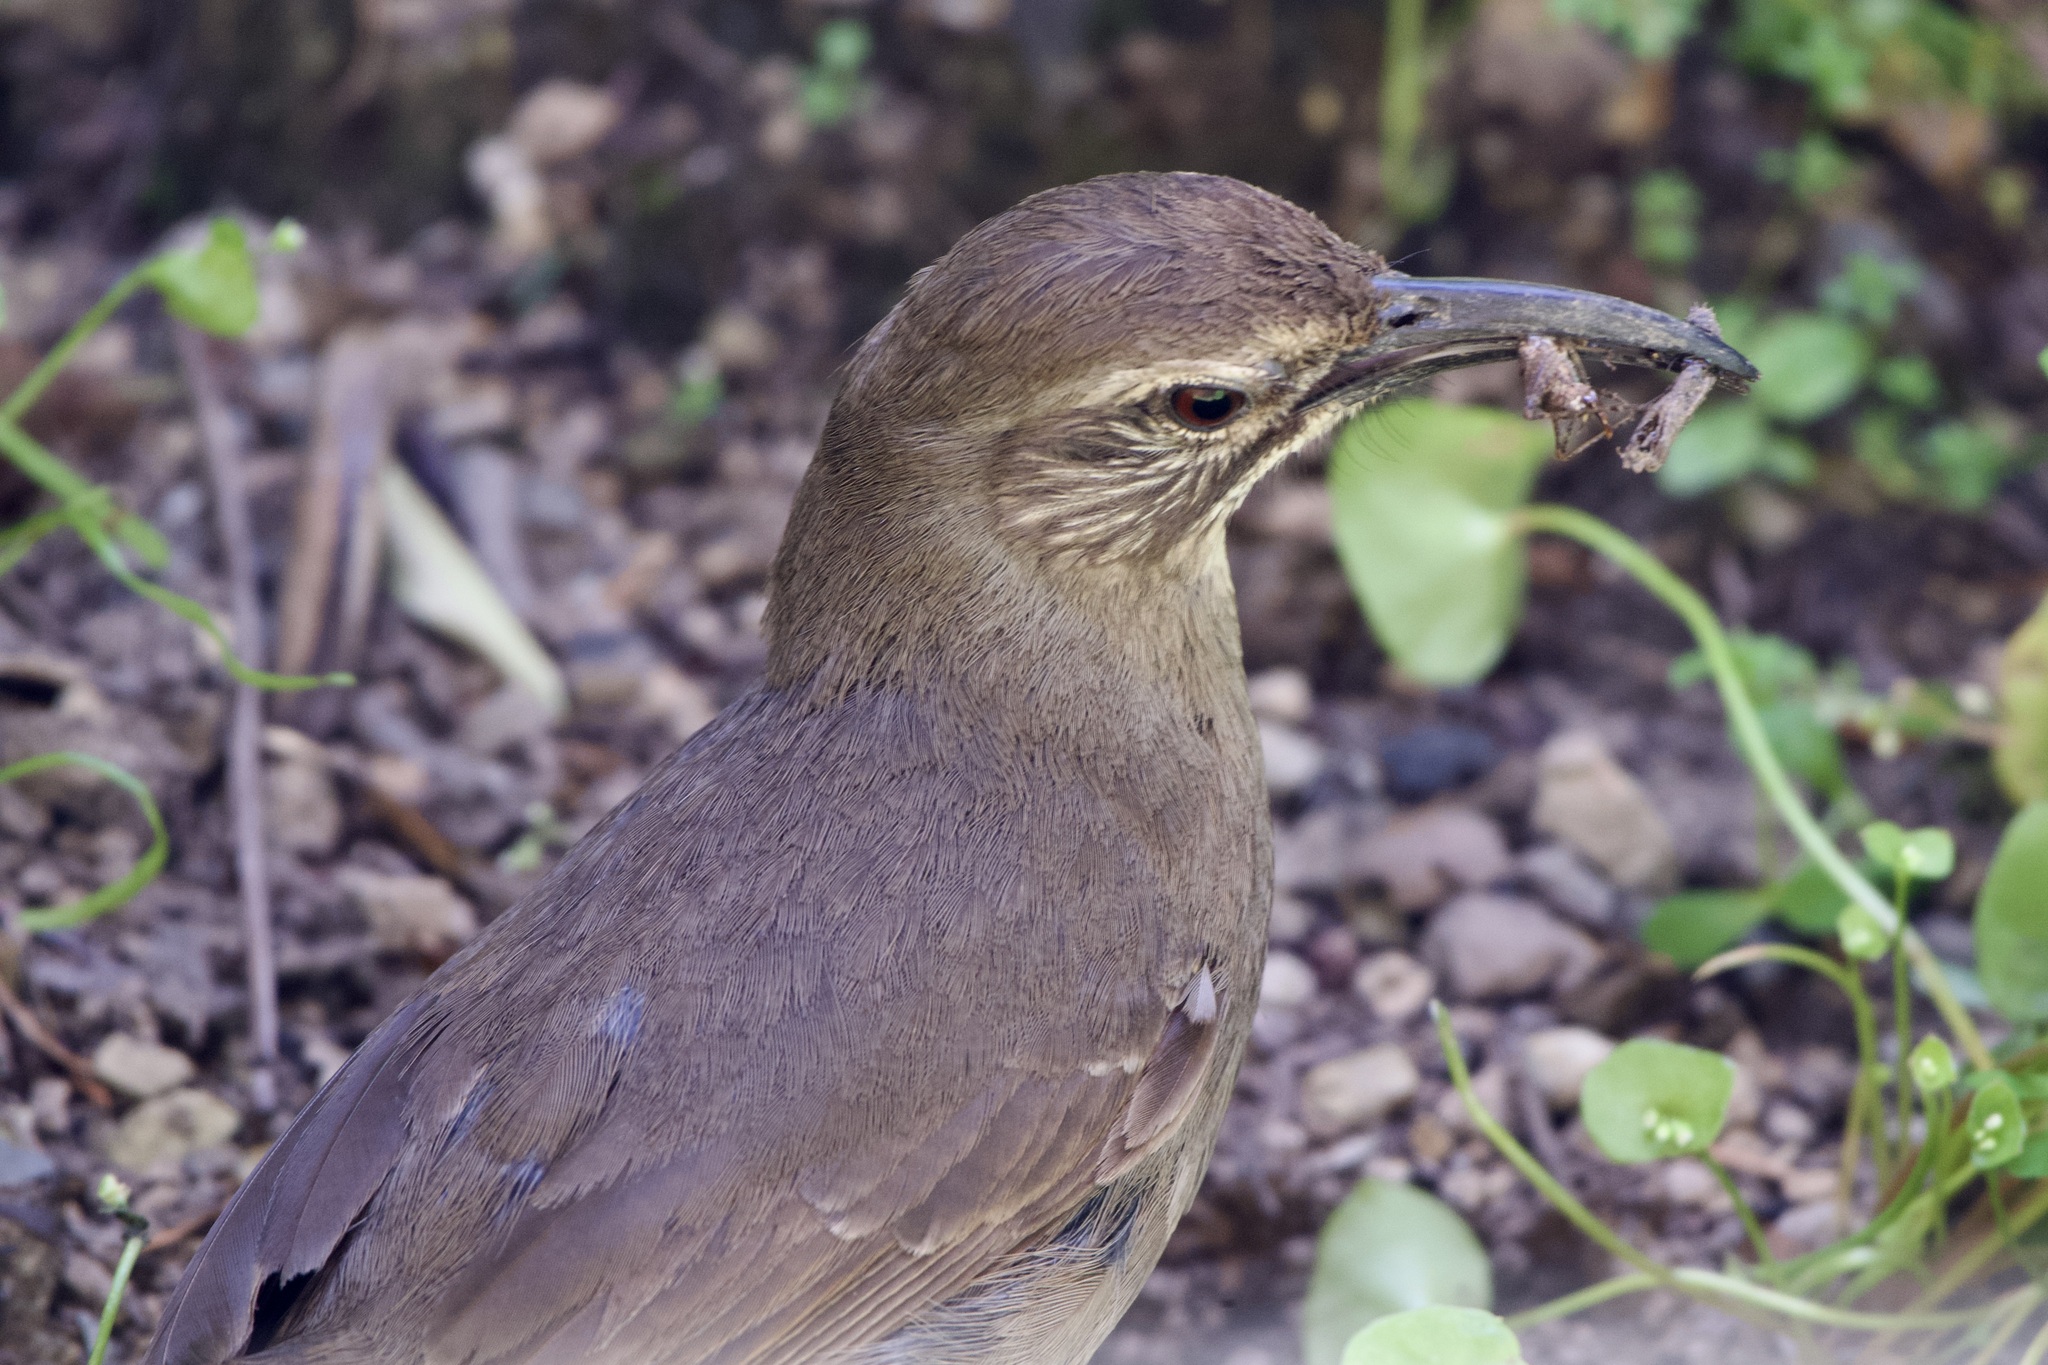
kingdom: Animalia
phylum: Chordata
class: Aves
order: Passeriformes
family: Mimidae
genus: Toxostoma
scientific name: Toxostoma redivivum
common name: California thrasher
